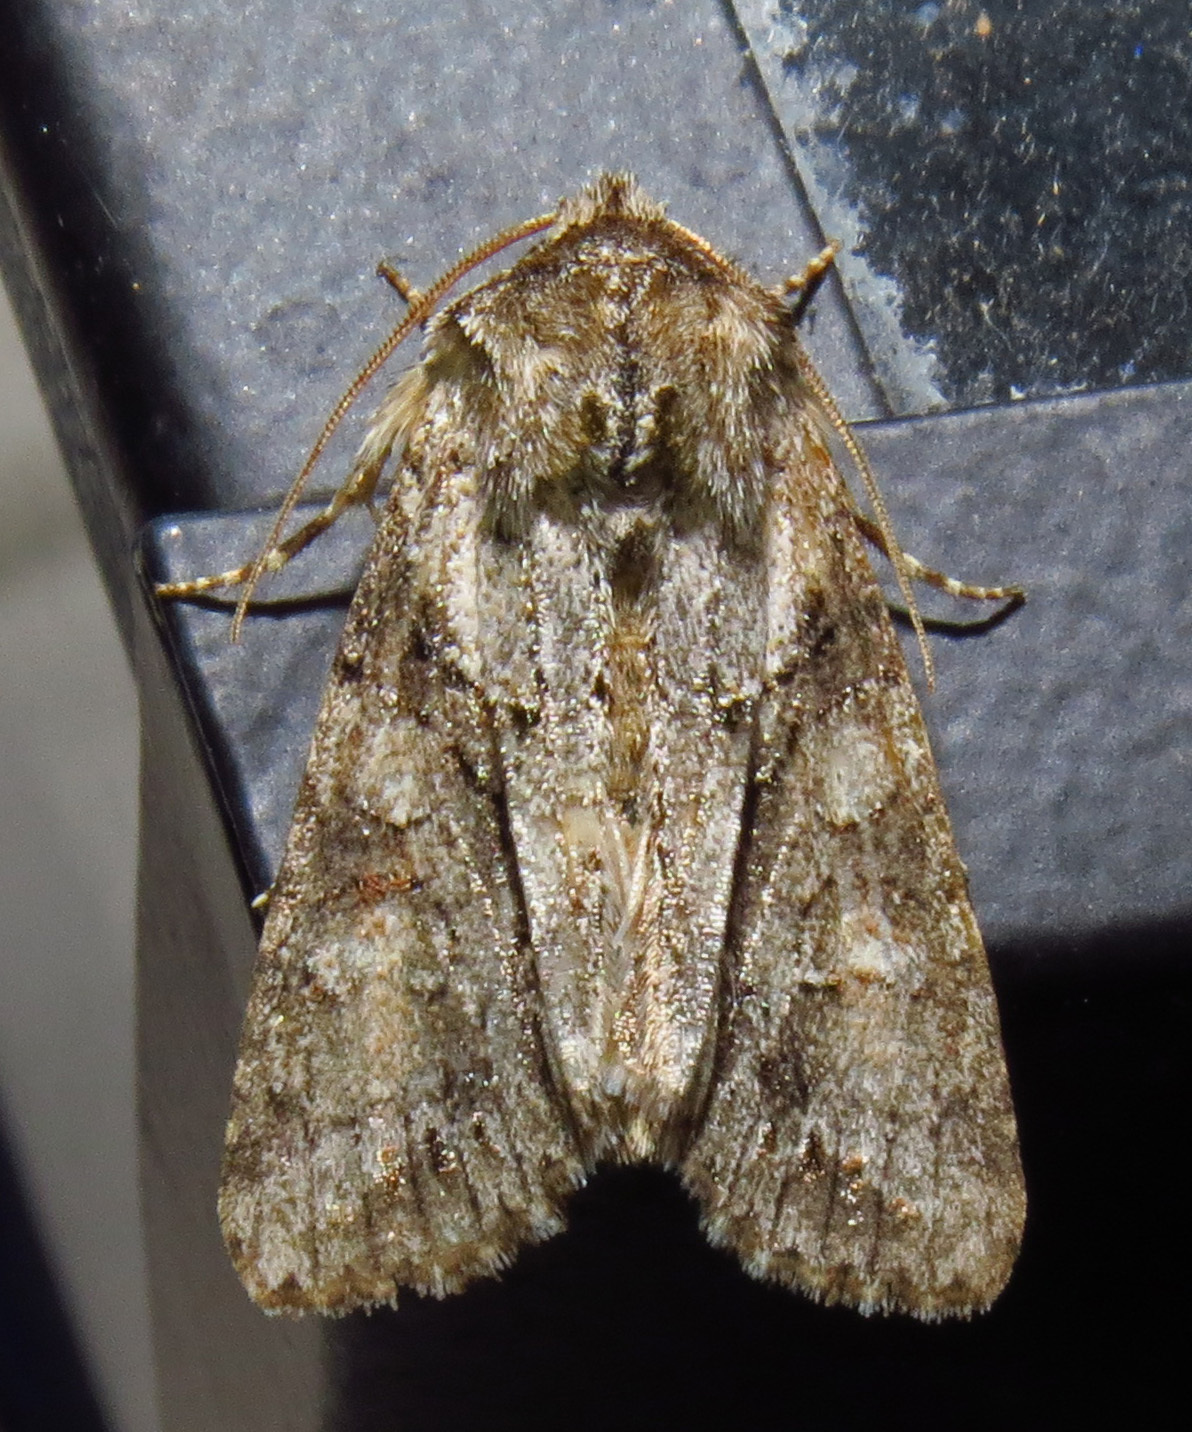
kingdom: Animalia
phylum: Arthropoda
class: Insecta
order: Lepidoptera
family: Noctuidae
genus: Achatia
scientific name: Achatia distincta
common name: Distinct quaker
